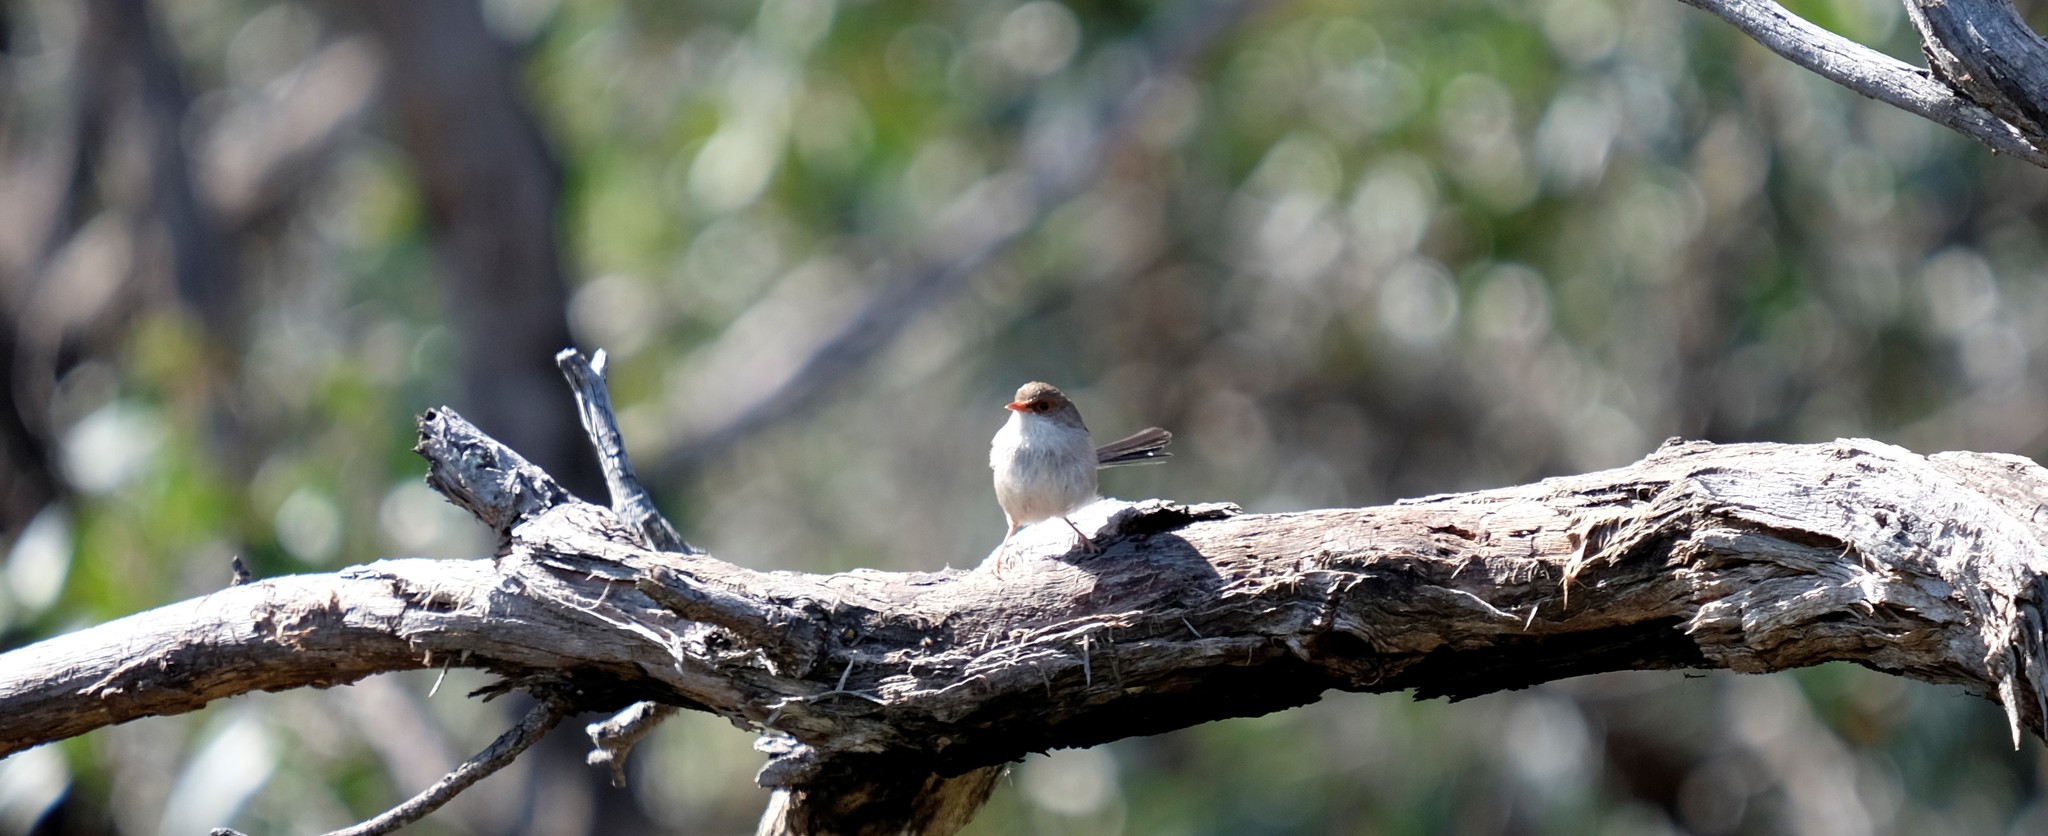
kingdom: Animalia
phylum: Chordata
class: Aves
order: Passeriformes
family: Maluridae
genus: Malurus
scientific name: Malurus cyaneus
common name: Superb fairywren
